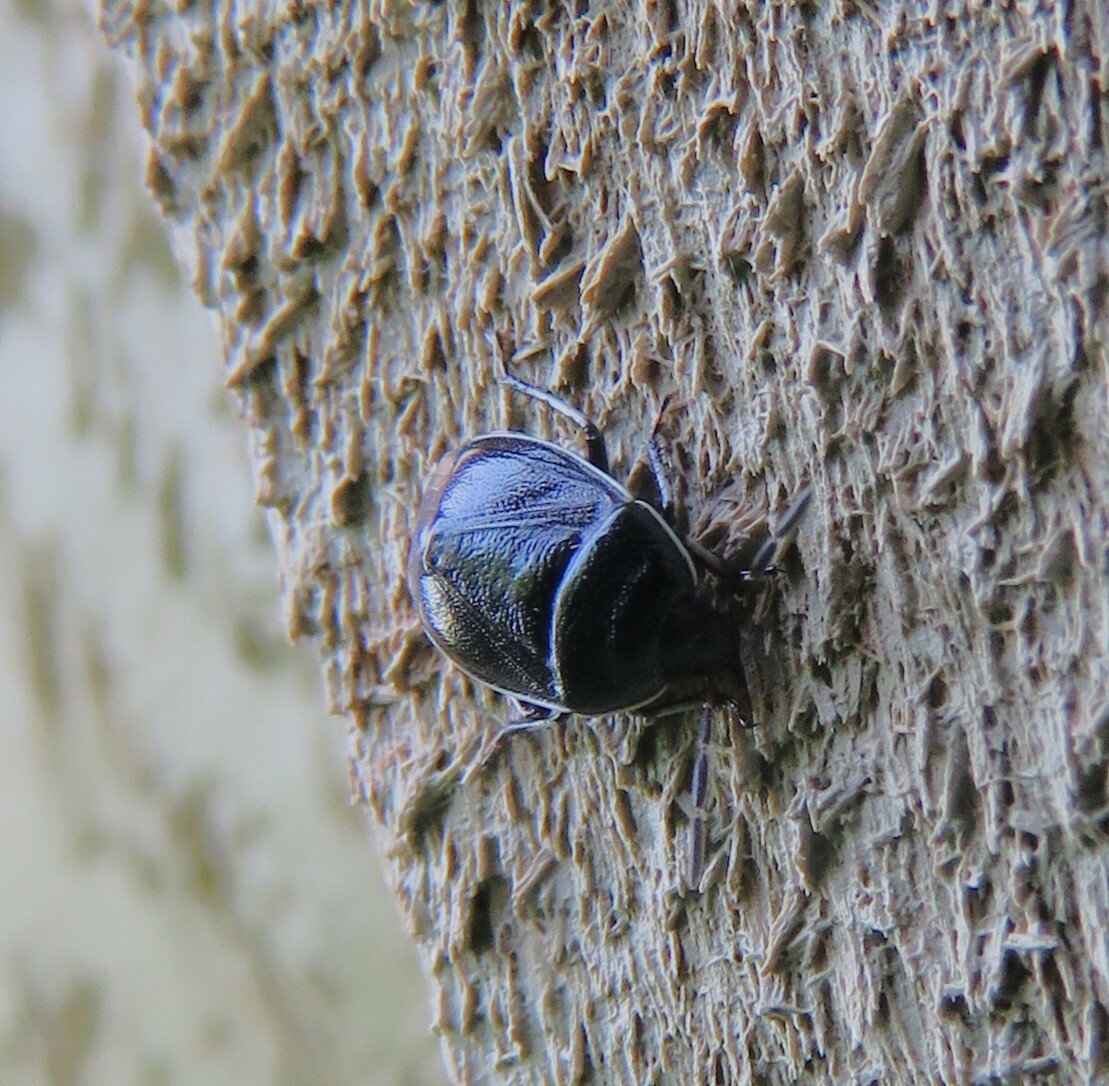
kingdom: Animalia
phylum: Arthropoda
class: Insecta
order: Hemiptera
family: Cydnidae
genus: Sehirus
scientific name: Sehirus cinctus
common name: White-margined burrower bug
